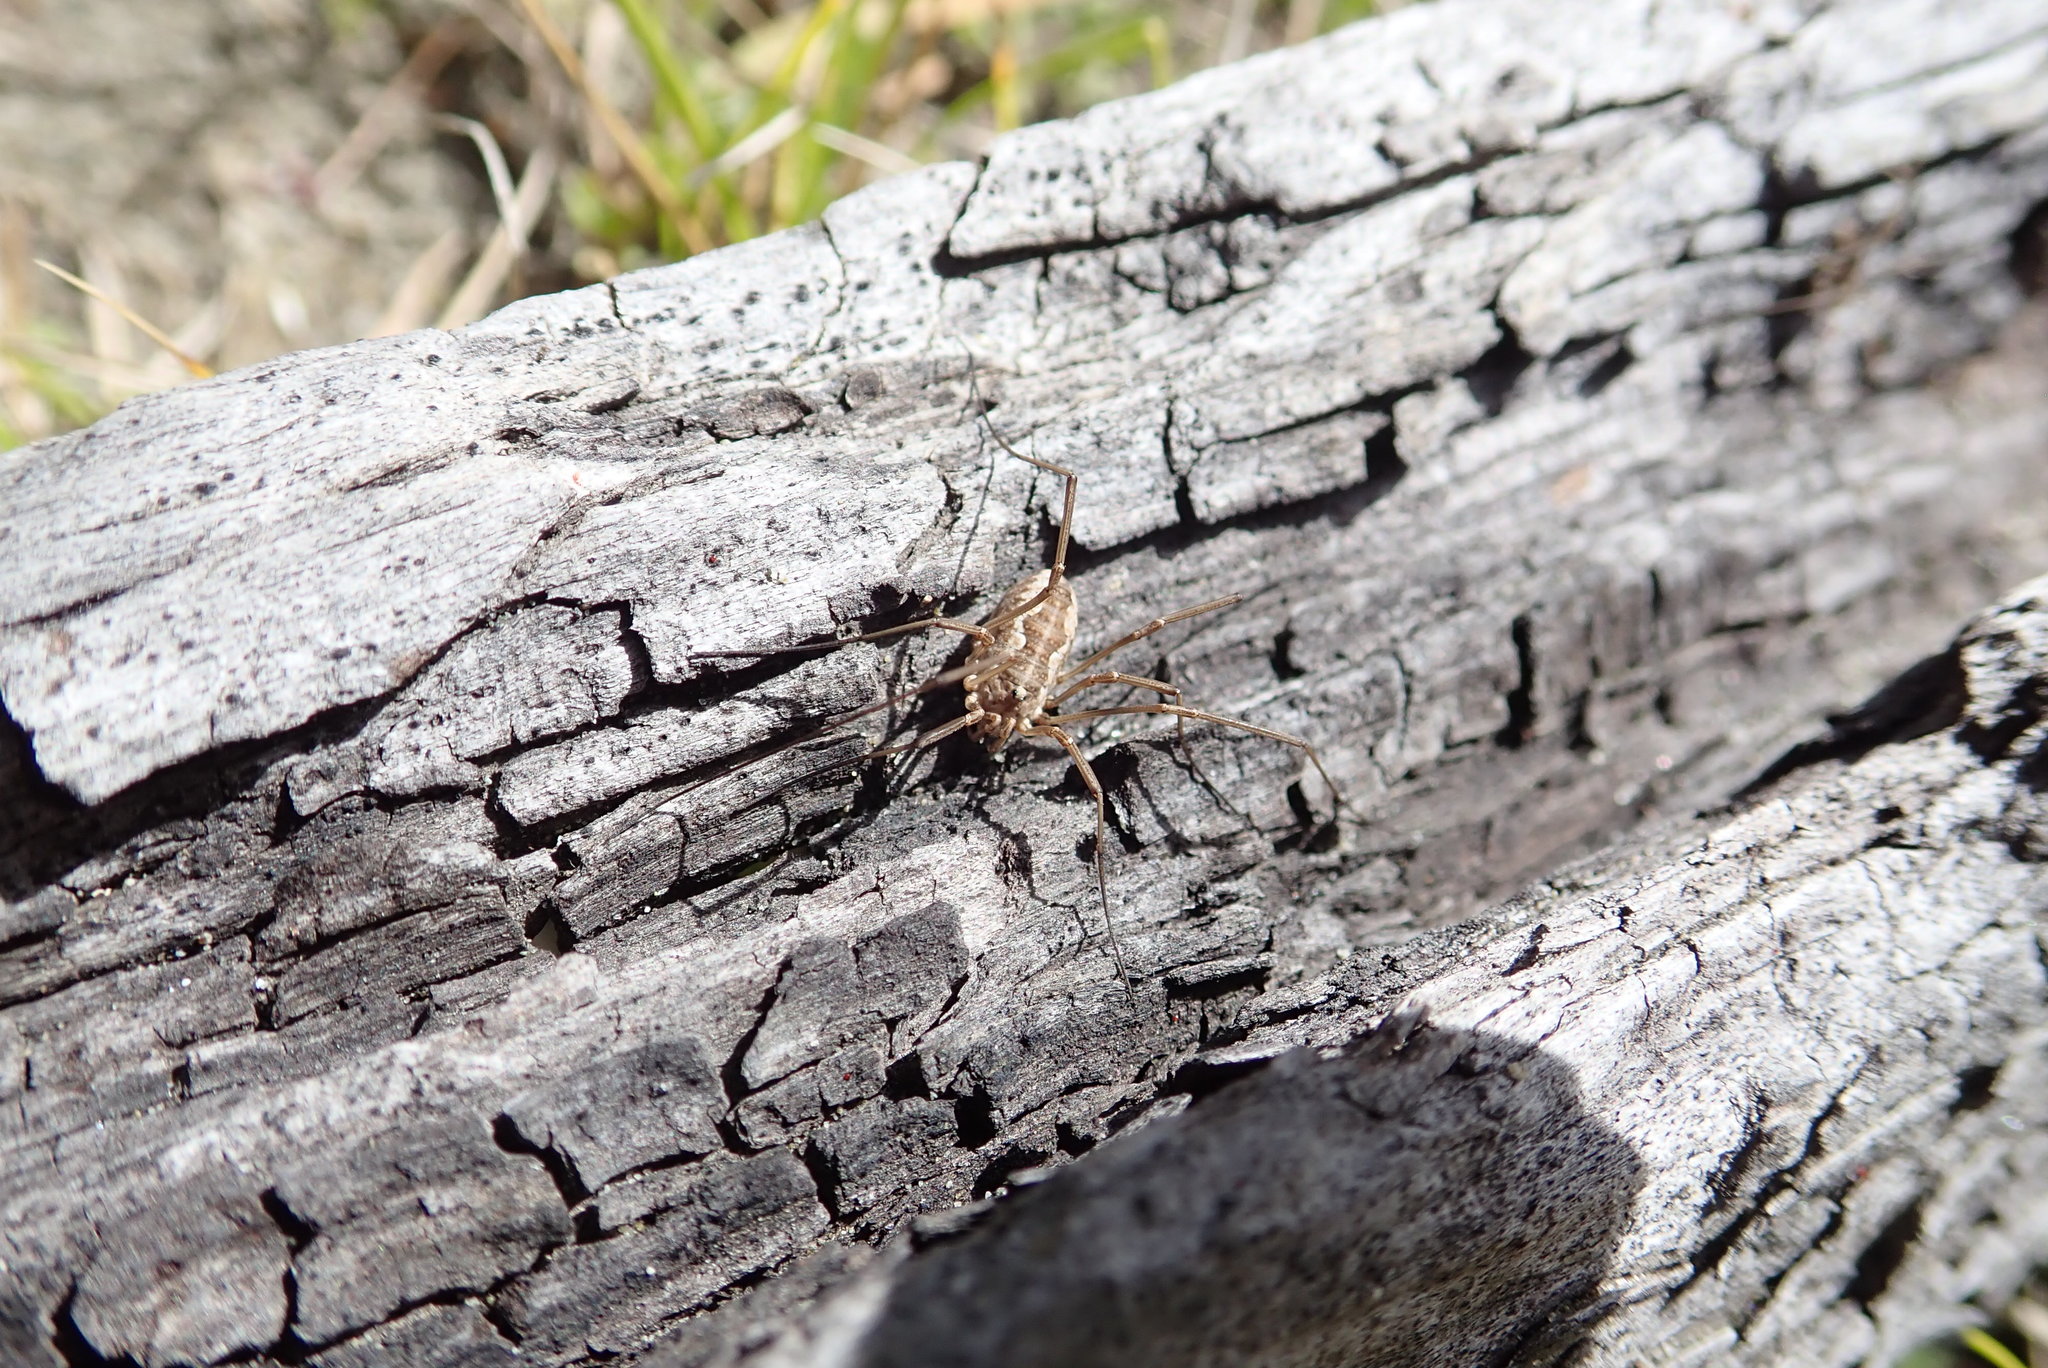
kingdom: Animalia
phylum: Arthropoda
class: Arachnida
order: Opiliones
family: Phalangiidae
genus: Phalangium
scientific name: Phalangium opilio
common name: Daddy longleg
